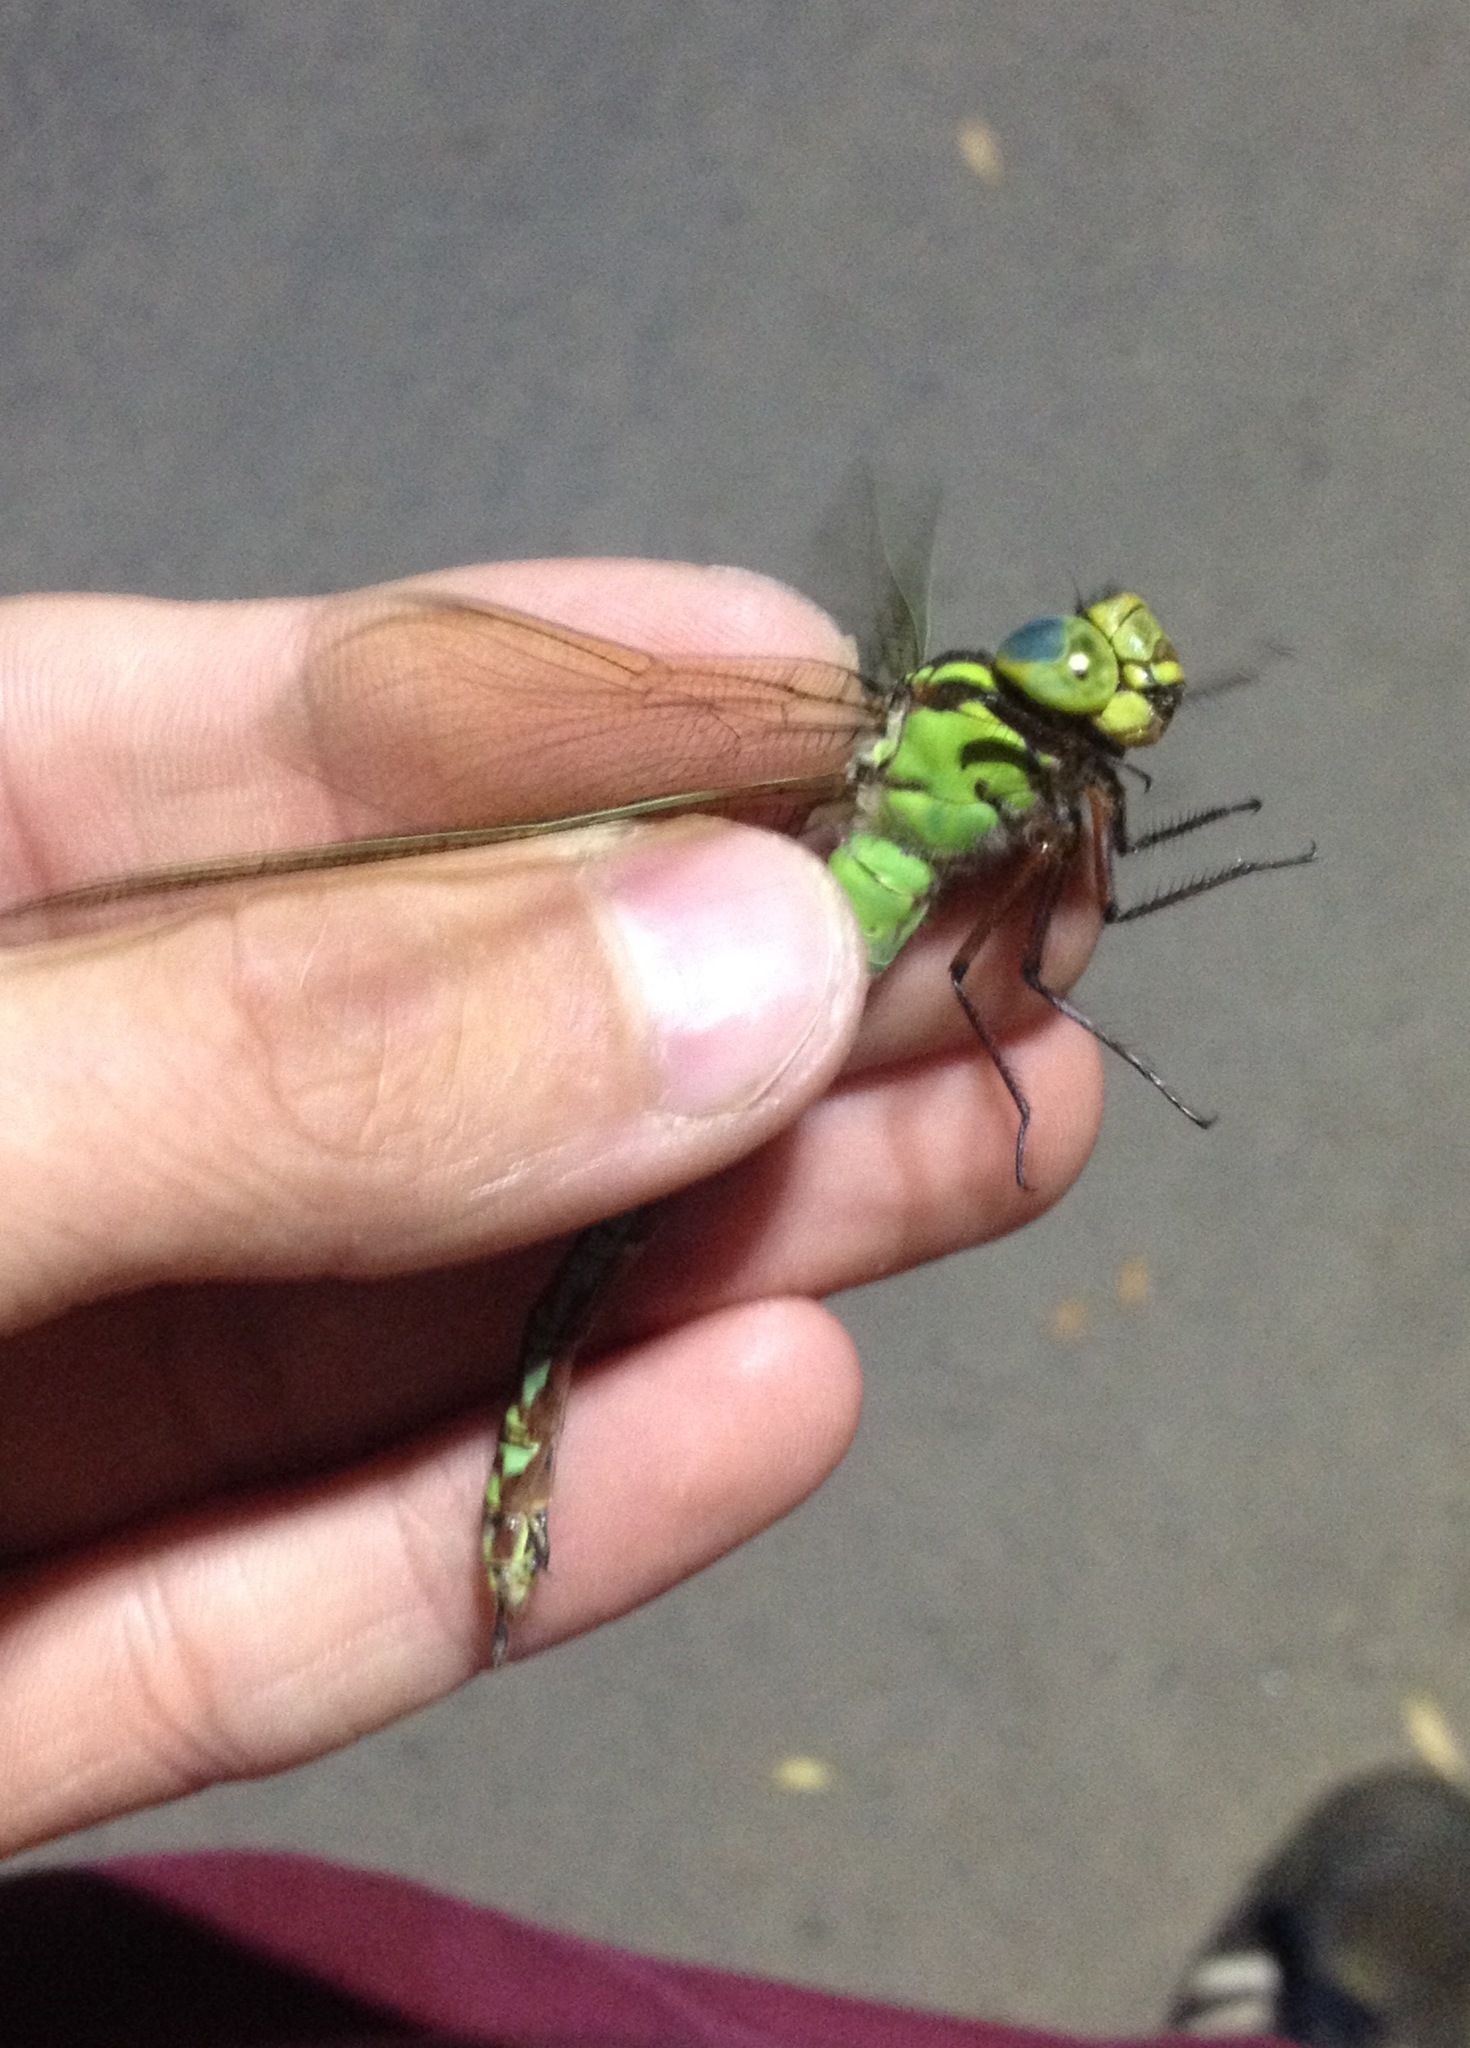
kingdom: Animalia
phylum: Arthropoda
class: Insecta
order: Odonata
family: Aeshnidae
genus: Aeshna
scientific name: Aeshna viridis
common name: Green hawker
